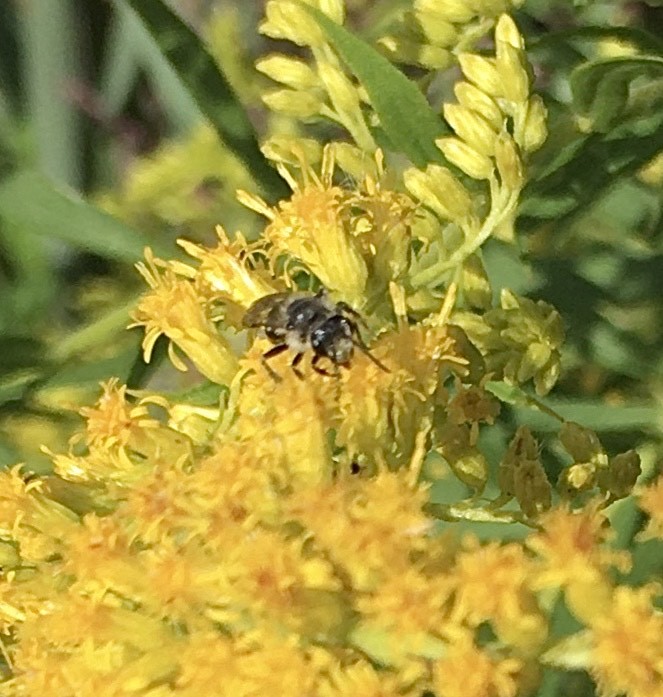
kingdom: Animalia
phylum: Arthropoda
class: Insecta
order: Hymenoptera
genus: Callandrena
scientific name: Callandrena
